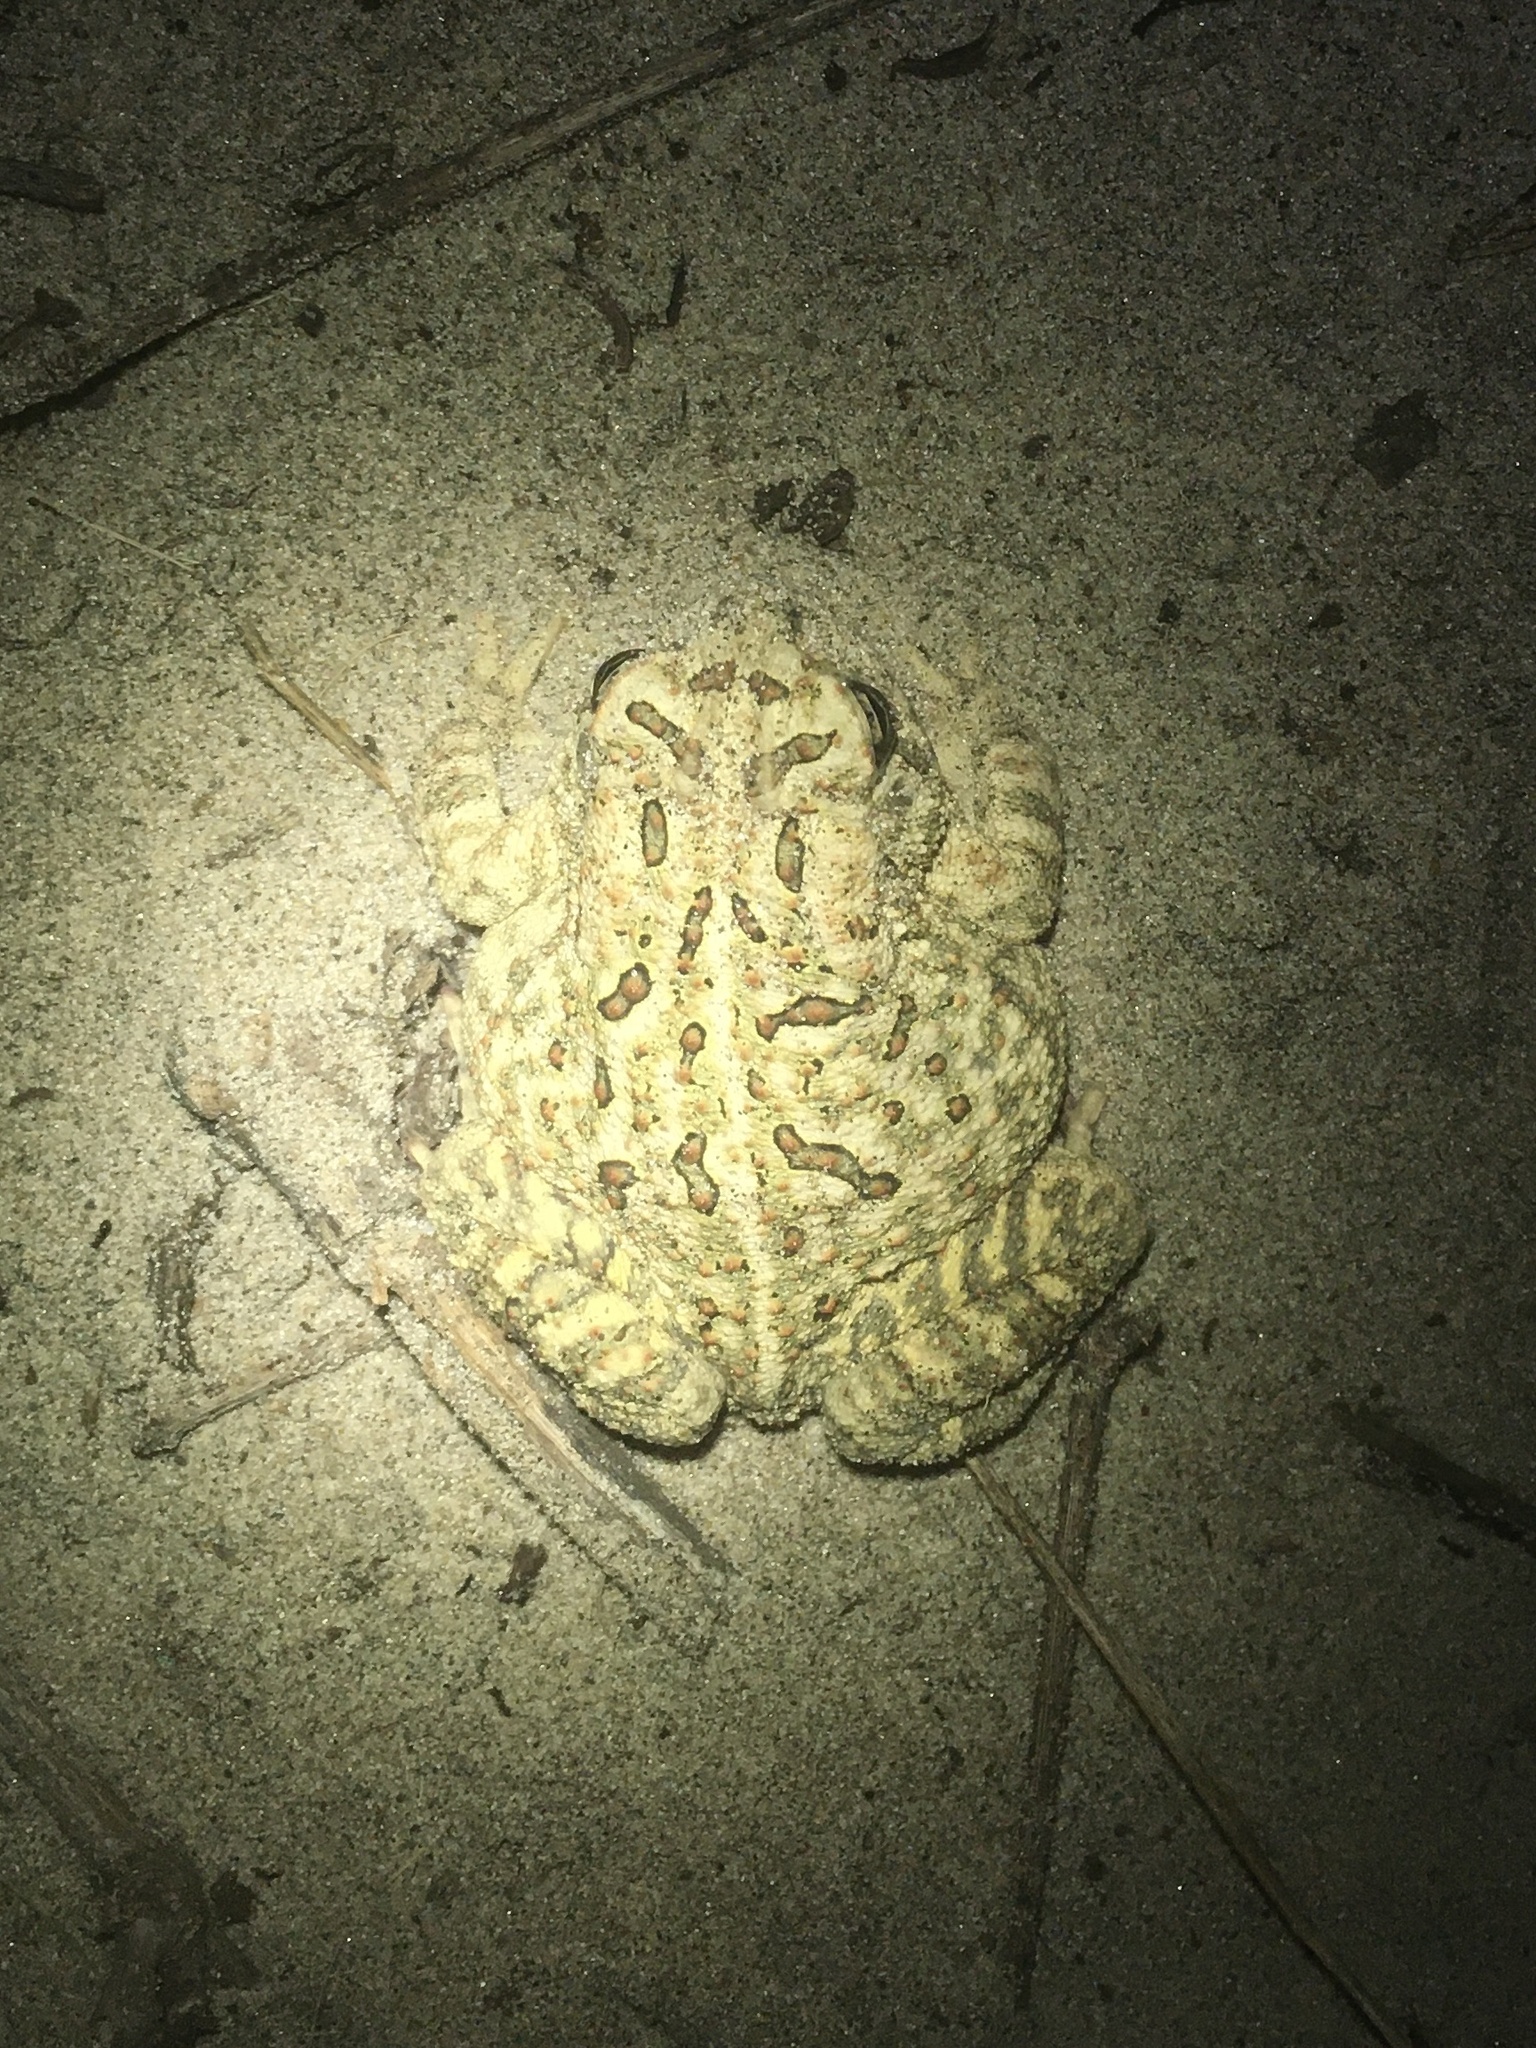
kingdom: Animalia
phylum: Chordata
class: Amphibia
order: Anura
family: Bufonidae
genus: Anaxyrus
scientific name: Anaxyrus fowleri
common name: Fowler's toad
